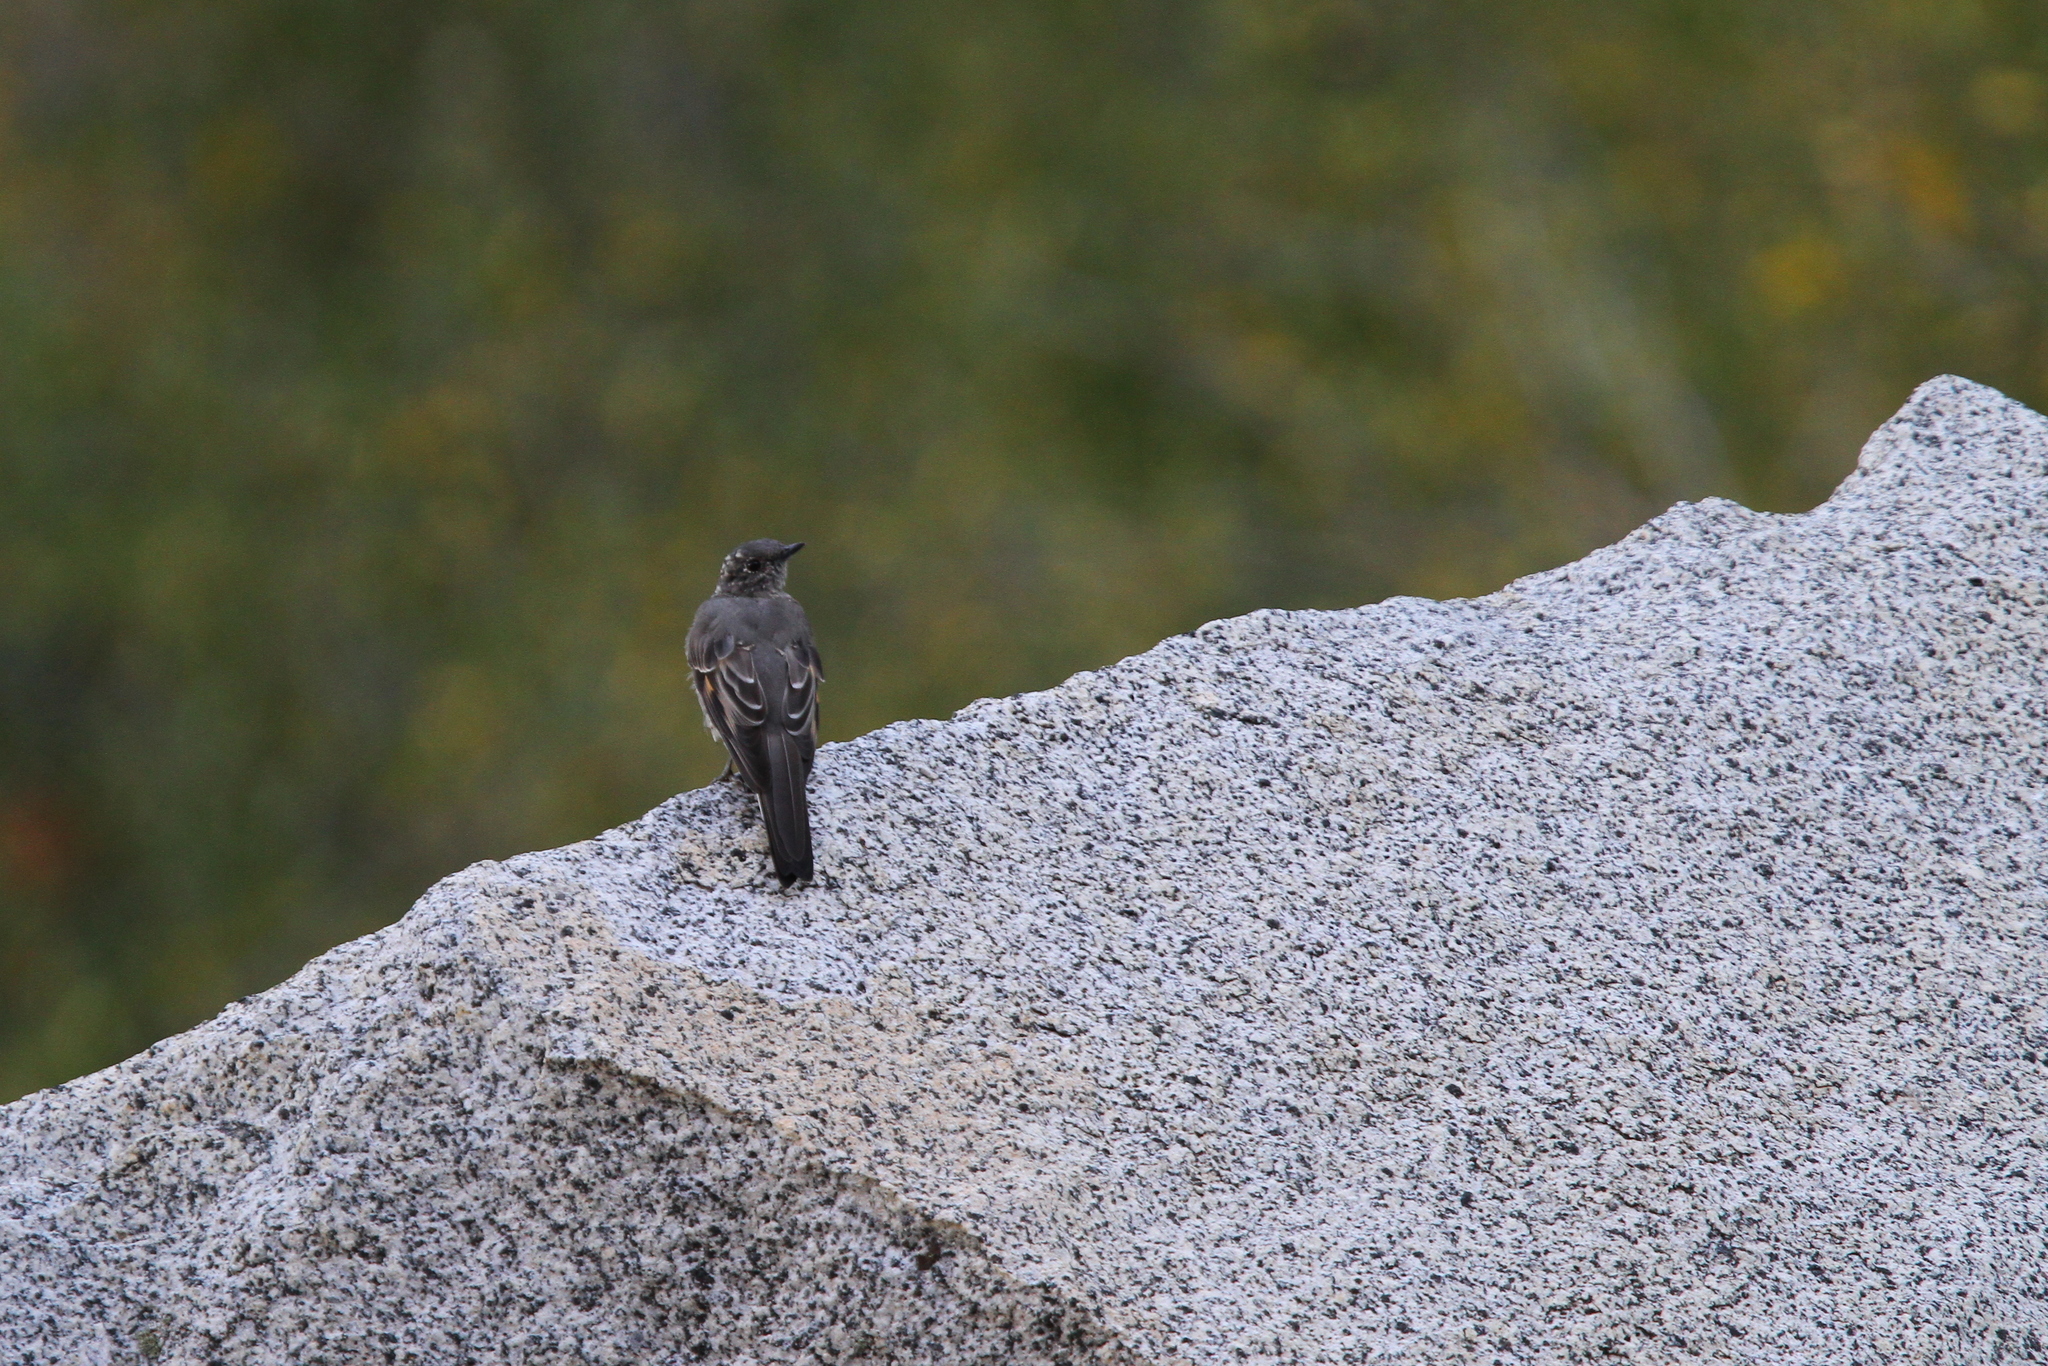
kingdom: Animalia
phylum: Chordata
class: Aves
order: Passeriformes
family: Turdidae
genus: Myadestes
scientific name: Myadestes townsendi
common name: Townsend's solitaire
